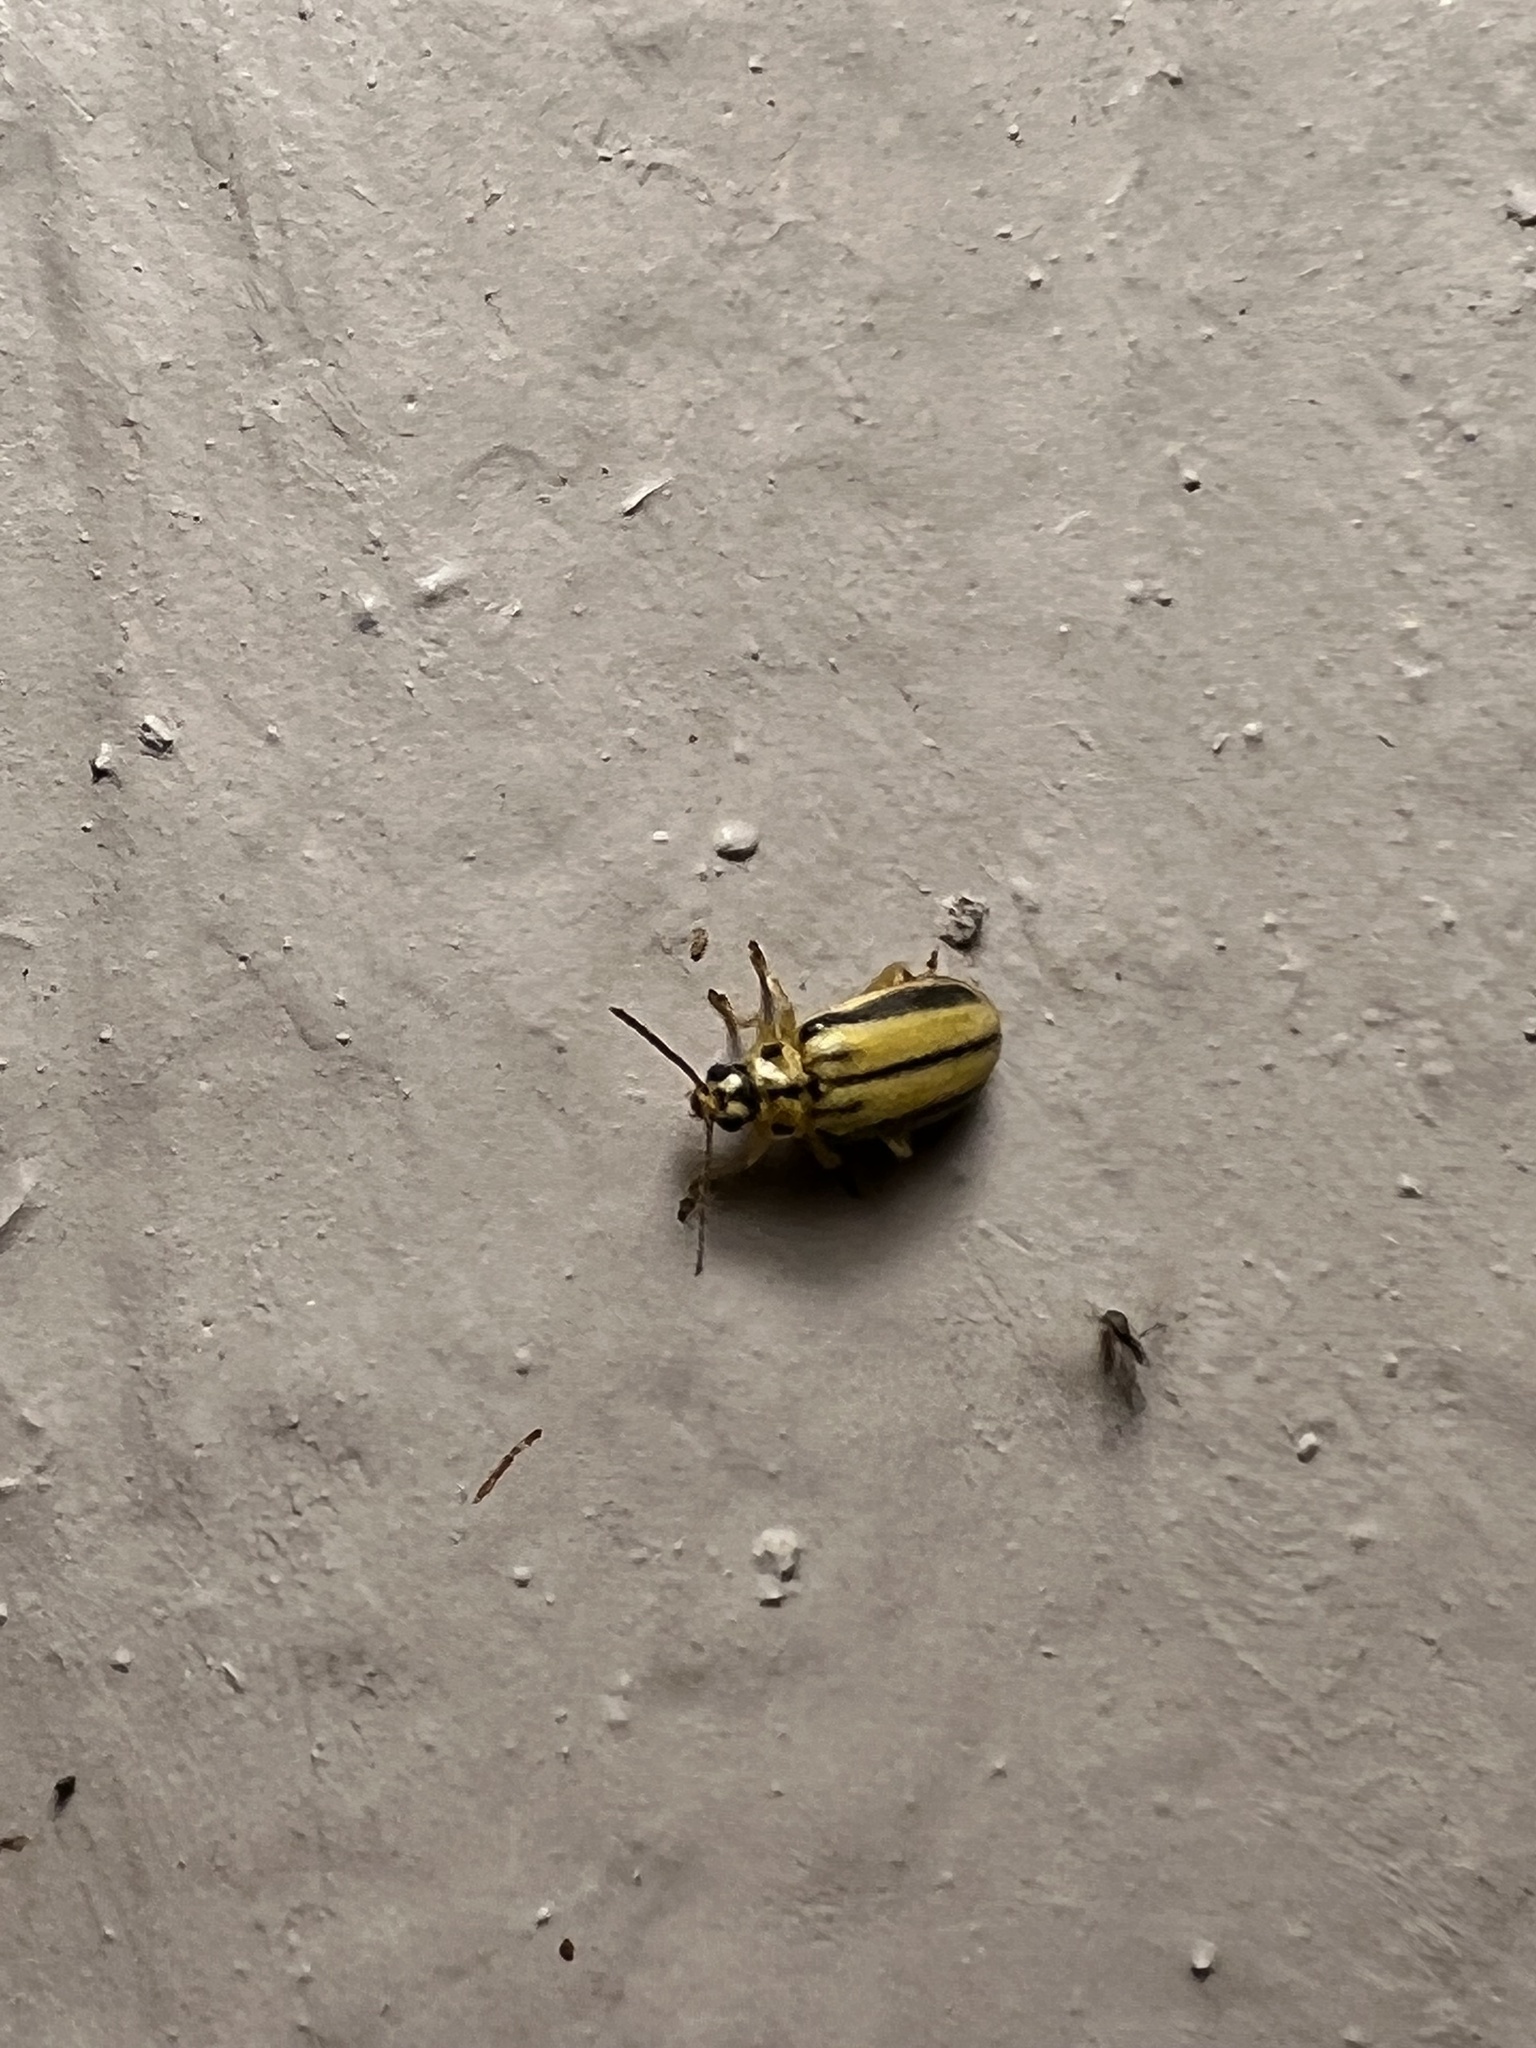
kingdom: Animalia
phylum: Arthropoda
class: Insecta
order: Coleoptera
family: Chrysomelidae
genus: Xanthogaleruca
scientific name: Xanthogaleruca luteola
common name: Elm leaf beetle
